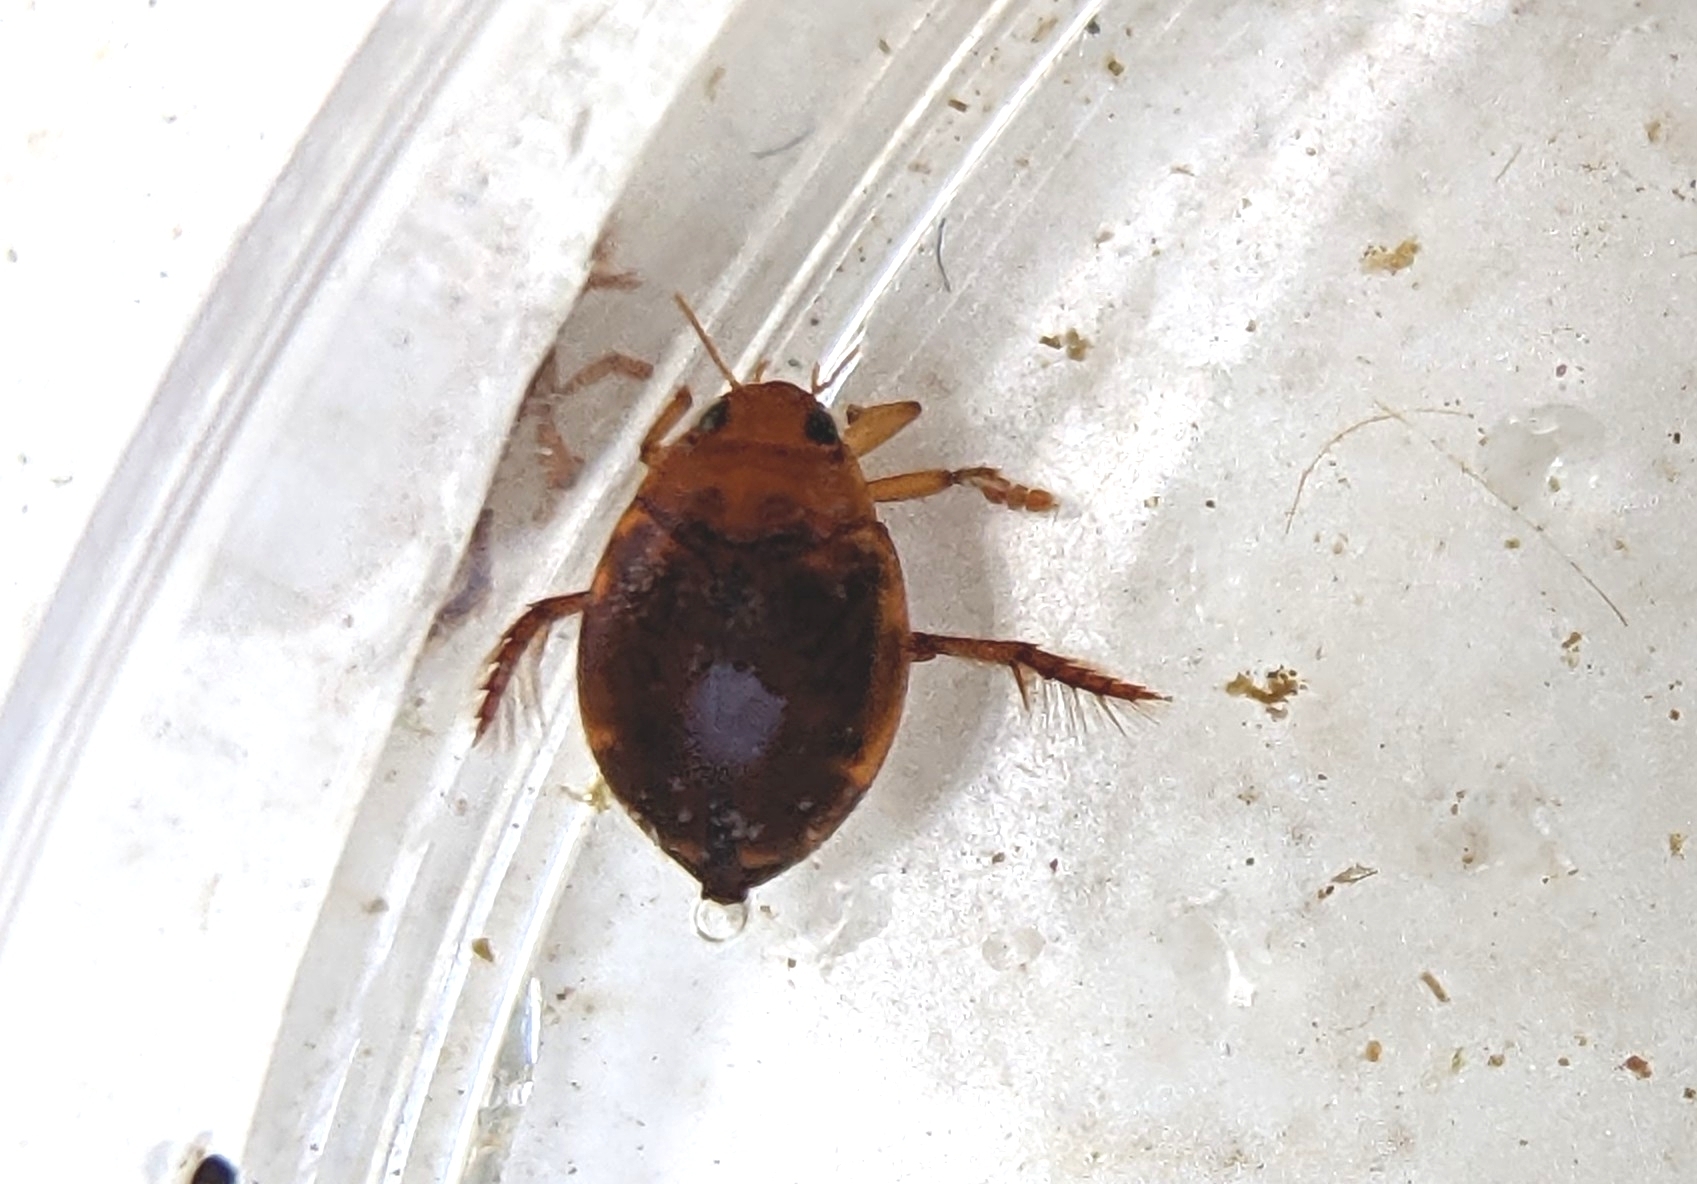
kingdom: Animalia
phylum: Arthropoda
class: Insecta
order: Coleoptera
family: Dytiscidae
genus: Hyphydrus
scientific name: Hyphydrus ovatus
